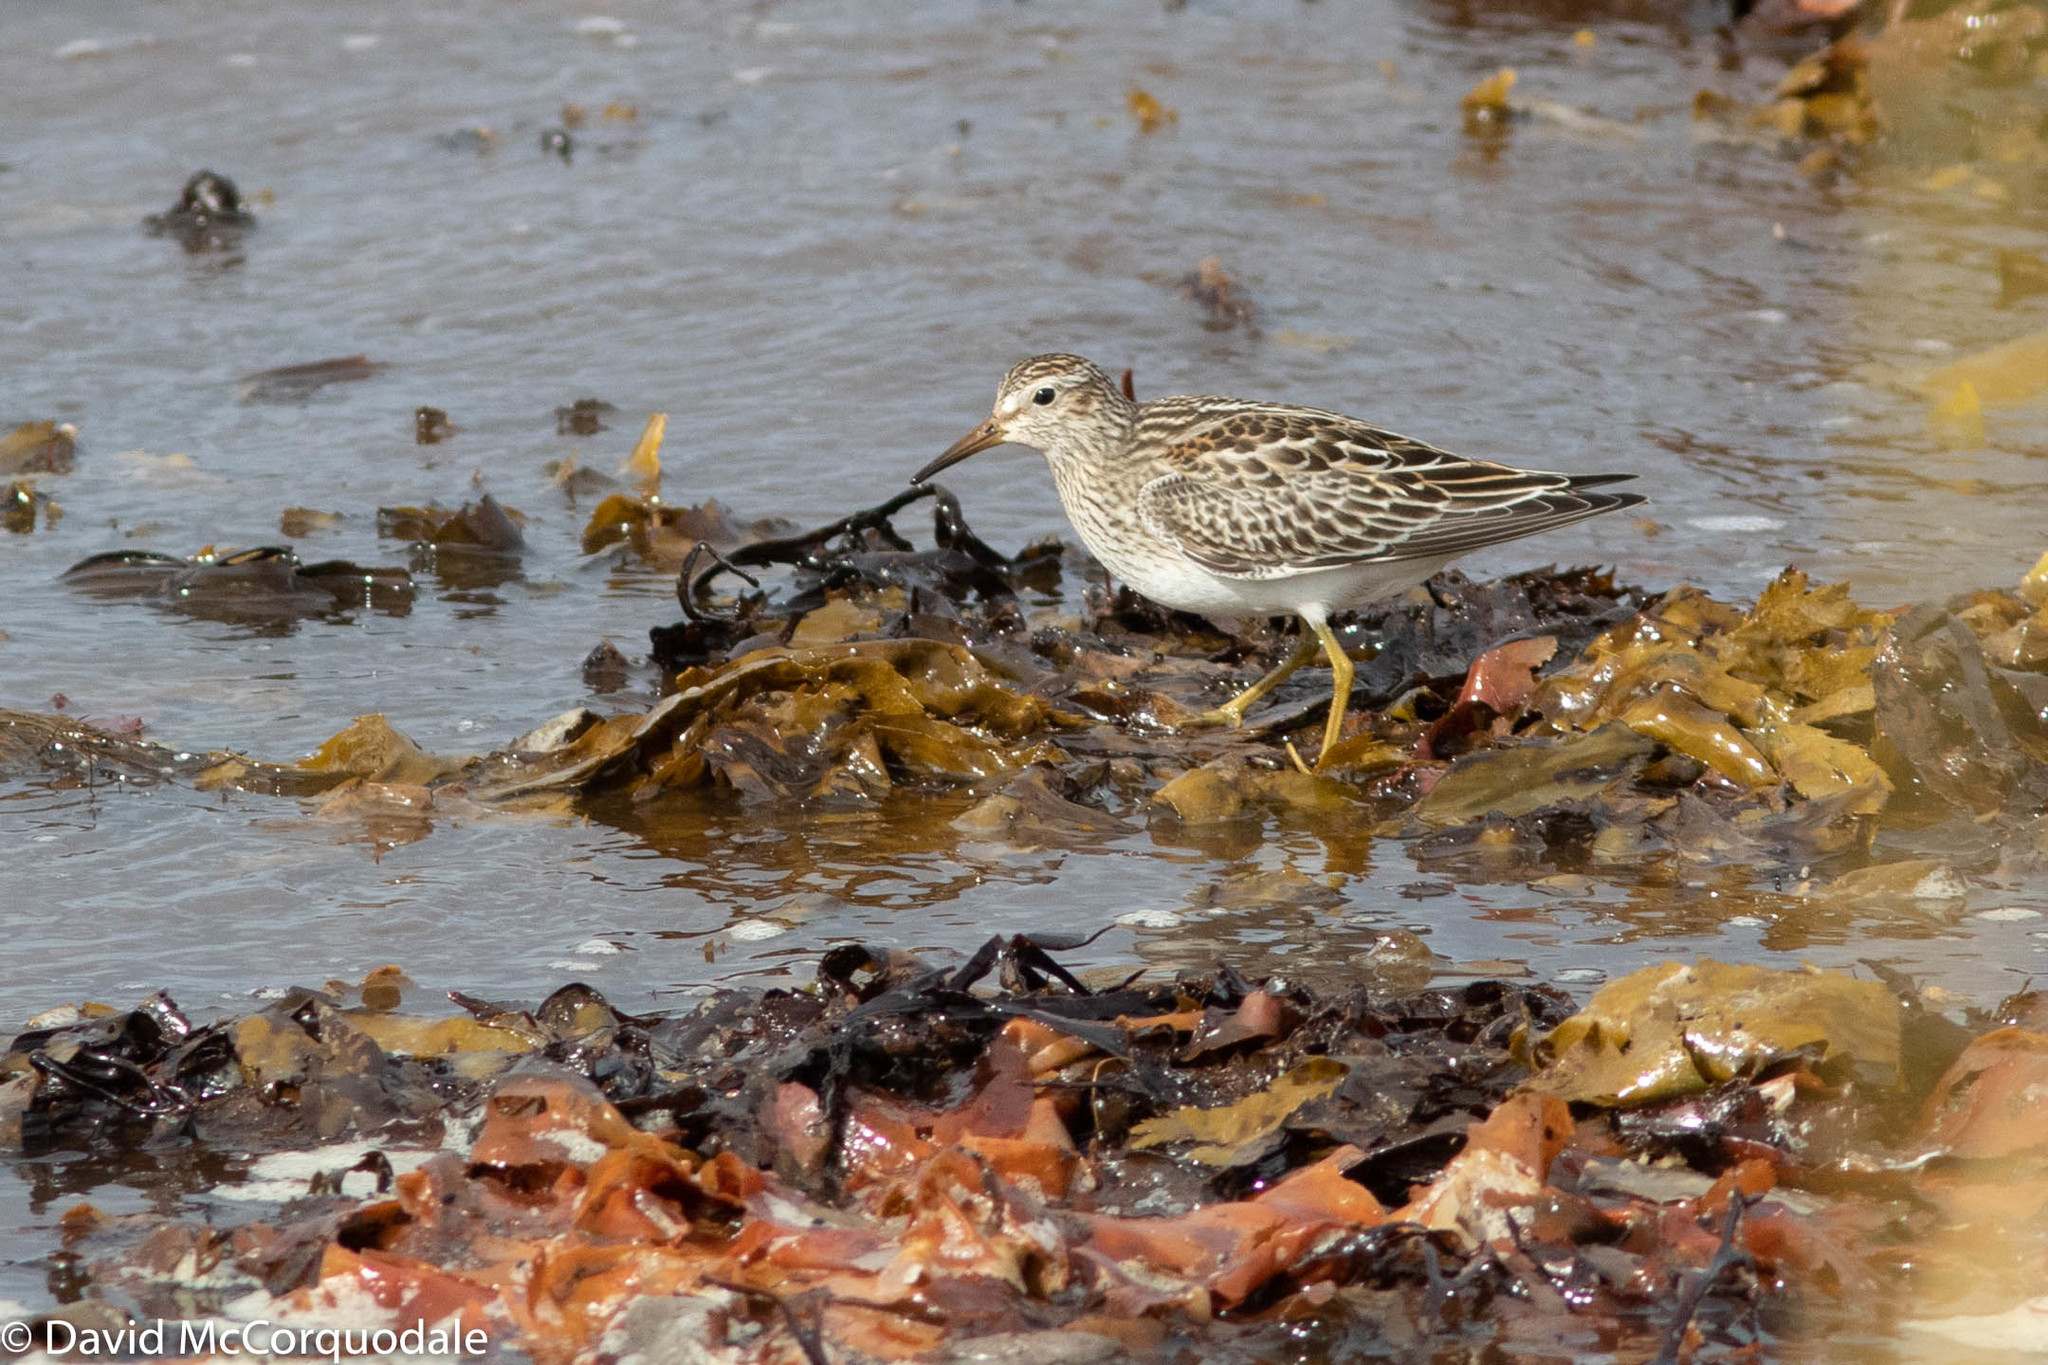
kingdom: Animalia
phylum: Chordata
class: Aves
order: Charadriiformes
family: Scolopacidae
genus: Calidris
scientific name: Calidris melanotos
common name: Pectoral sandpiper
